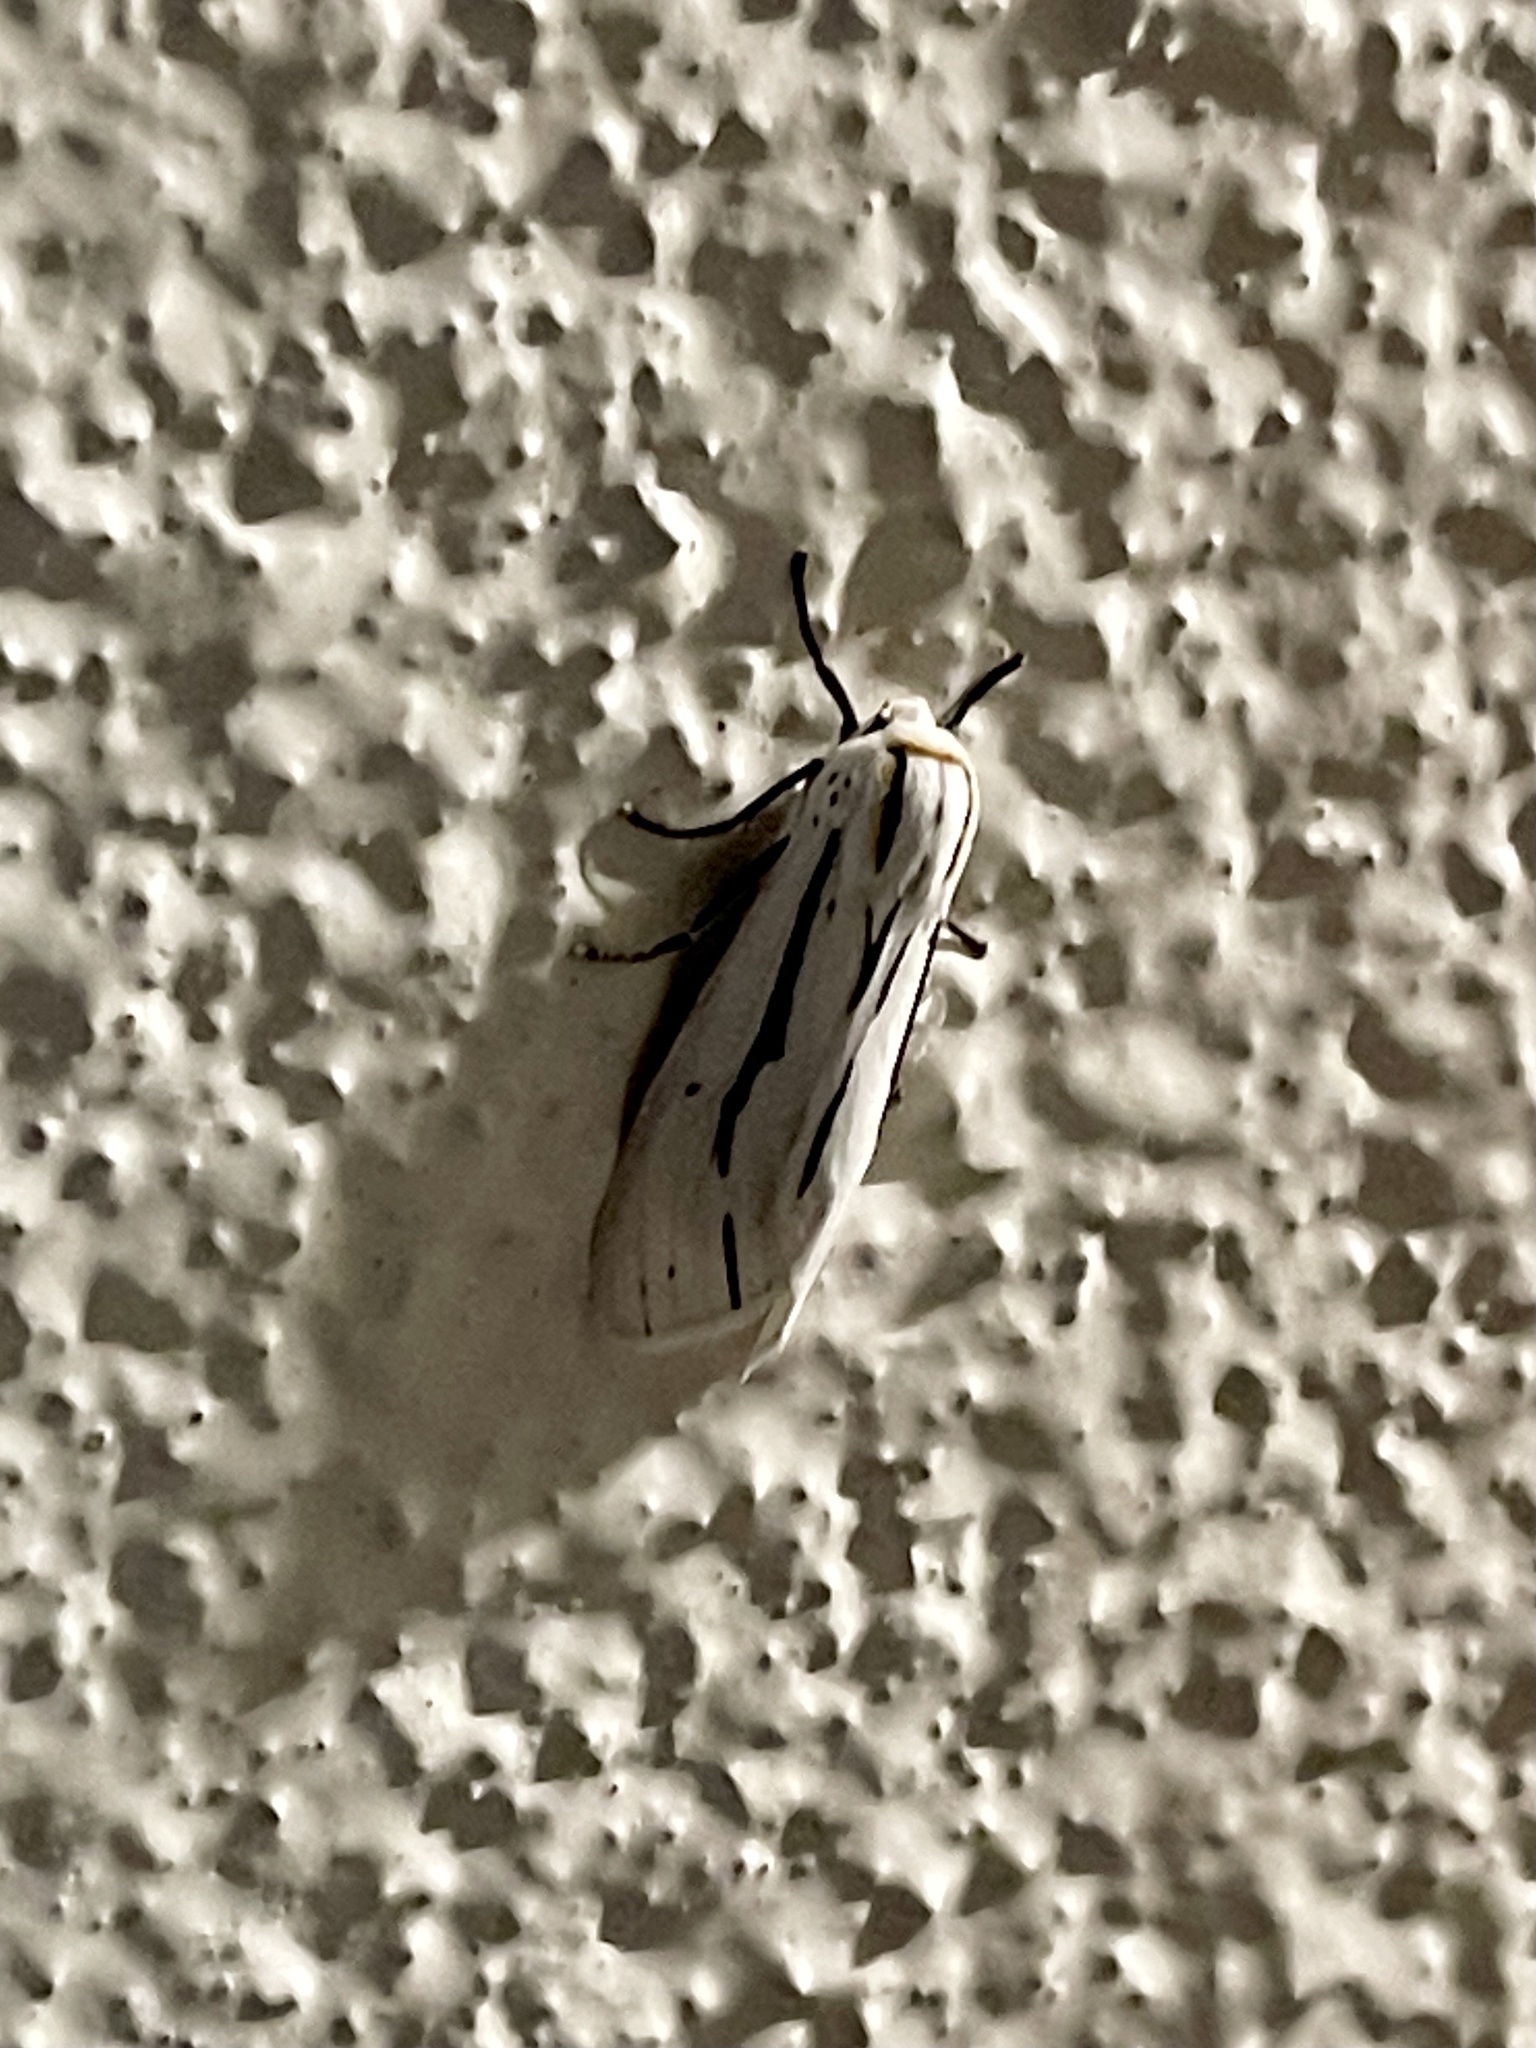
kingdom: Animalia
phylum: Arthropoda
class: Insecta
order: Lepidoptera
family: Erebidae
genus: Ectypia
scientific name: Ectypia clio
